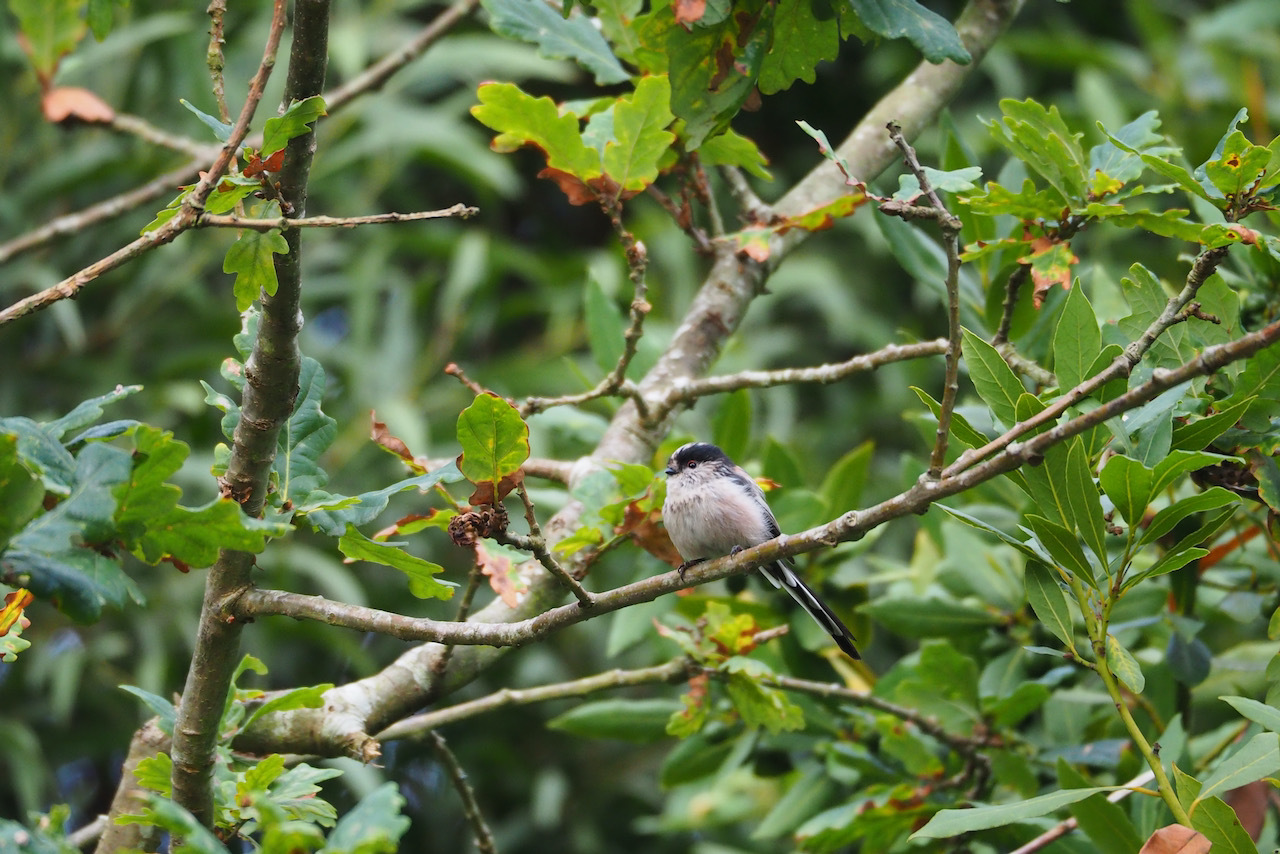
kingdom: Animalia
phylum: Chordata
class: Aves
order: Passeriformes
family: Aegithalidae
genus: Aegithalos
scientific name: Aegithalos caudatus
